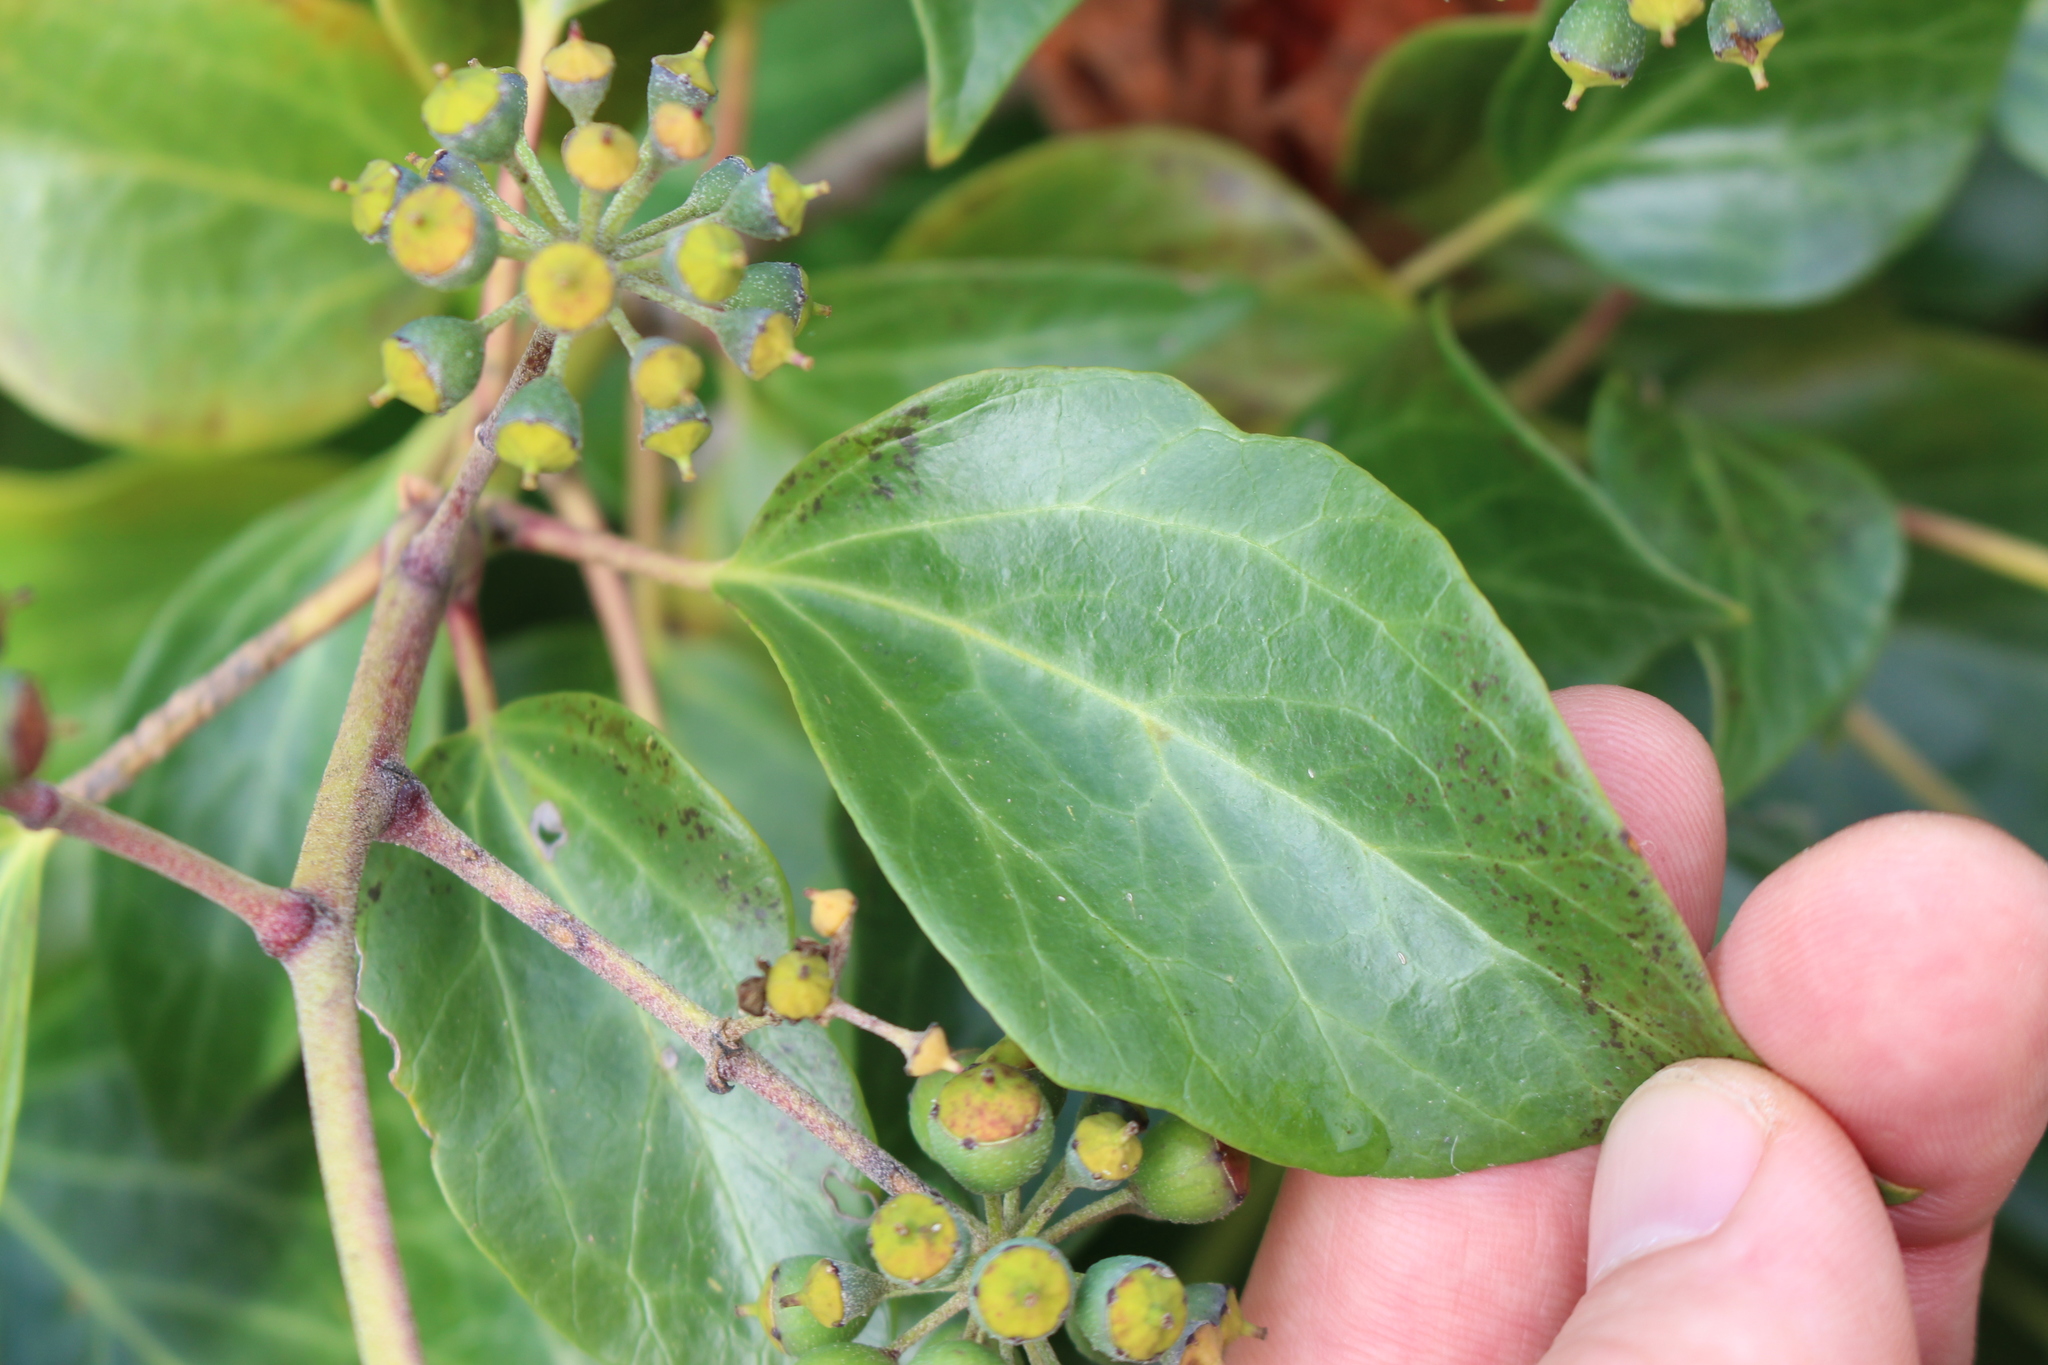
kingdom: Plantae
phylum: Tracheophyta
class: Magnoliopsida
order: Apiales
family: Araliaceae
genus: Hedera
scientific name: Hedera helix
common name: Ivy
